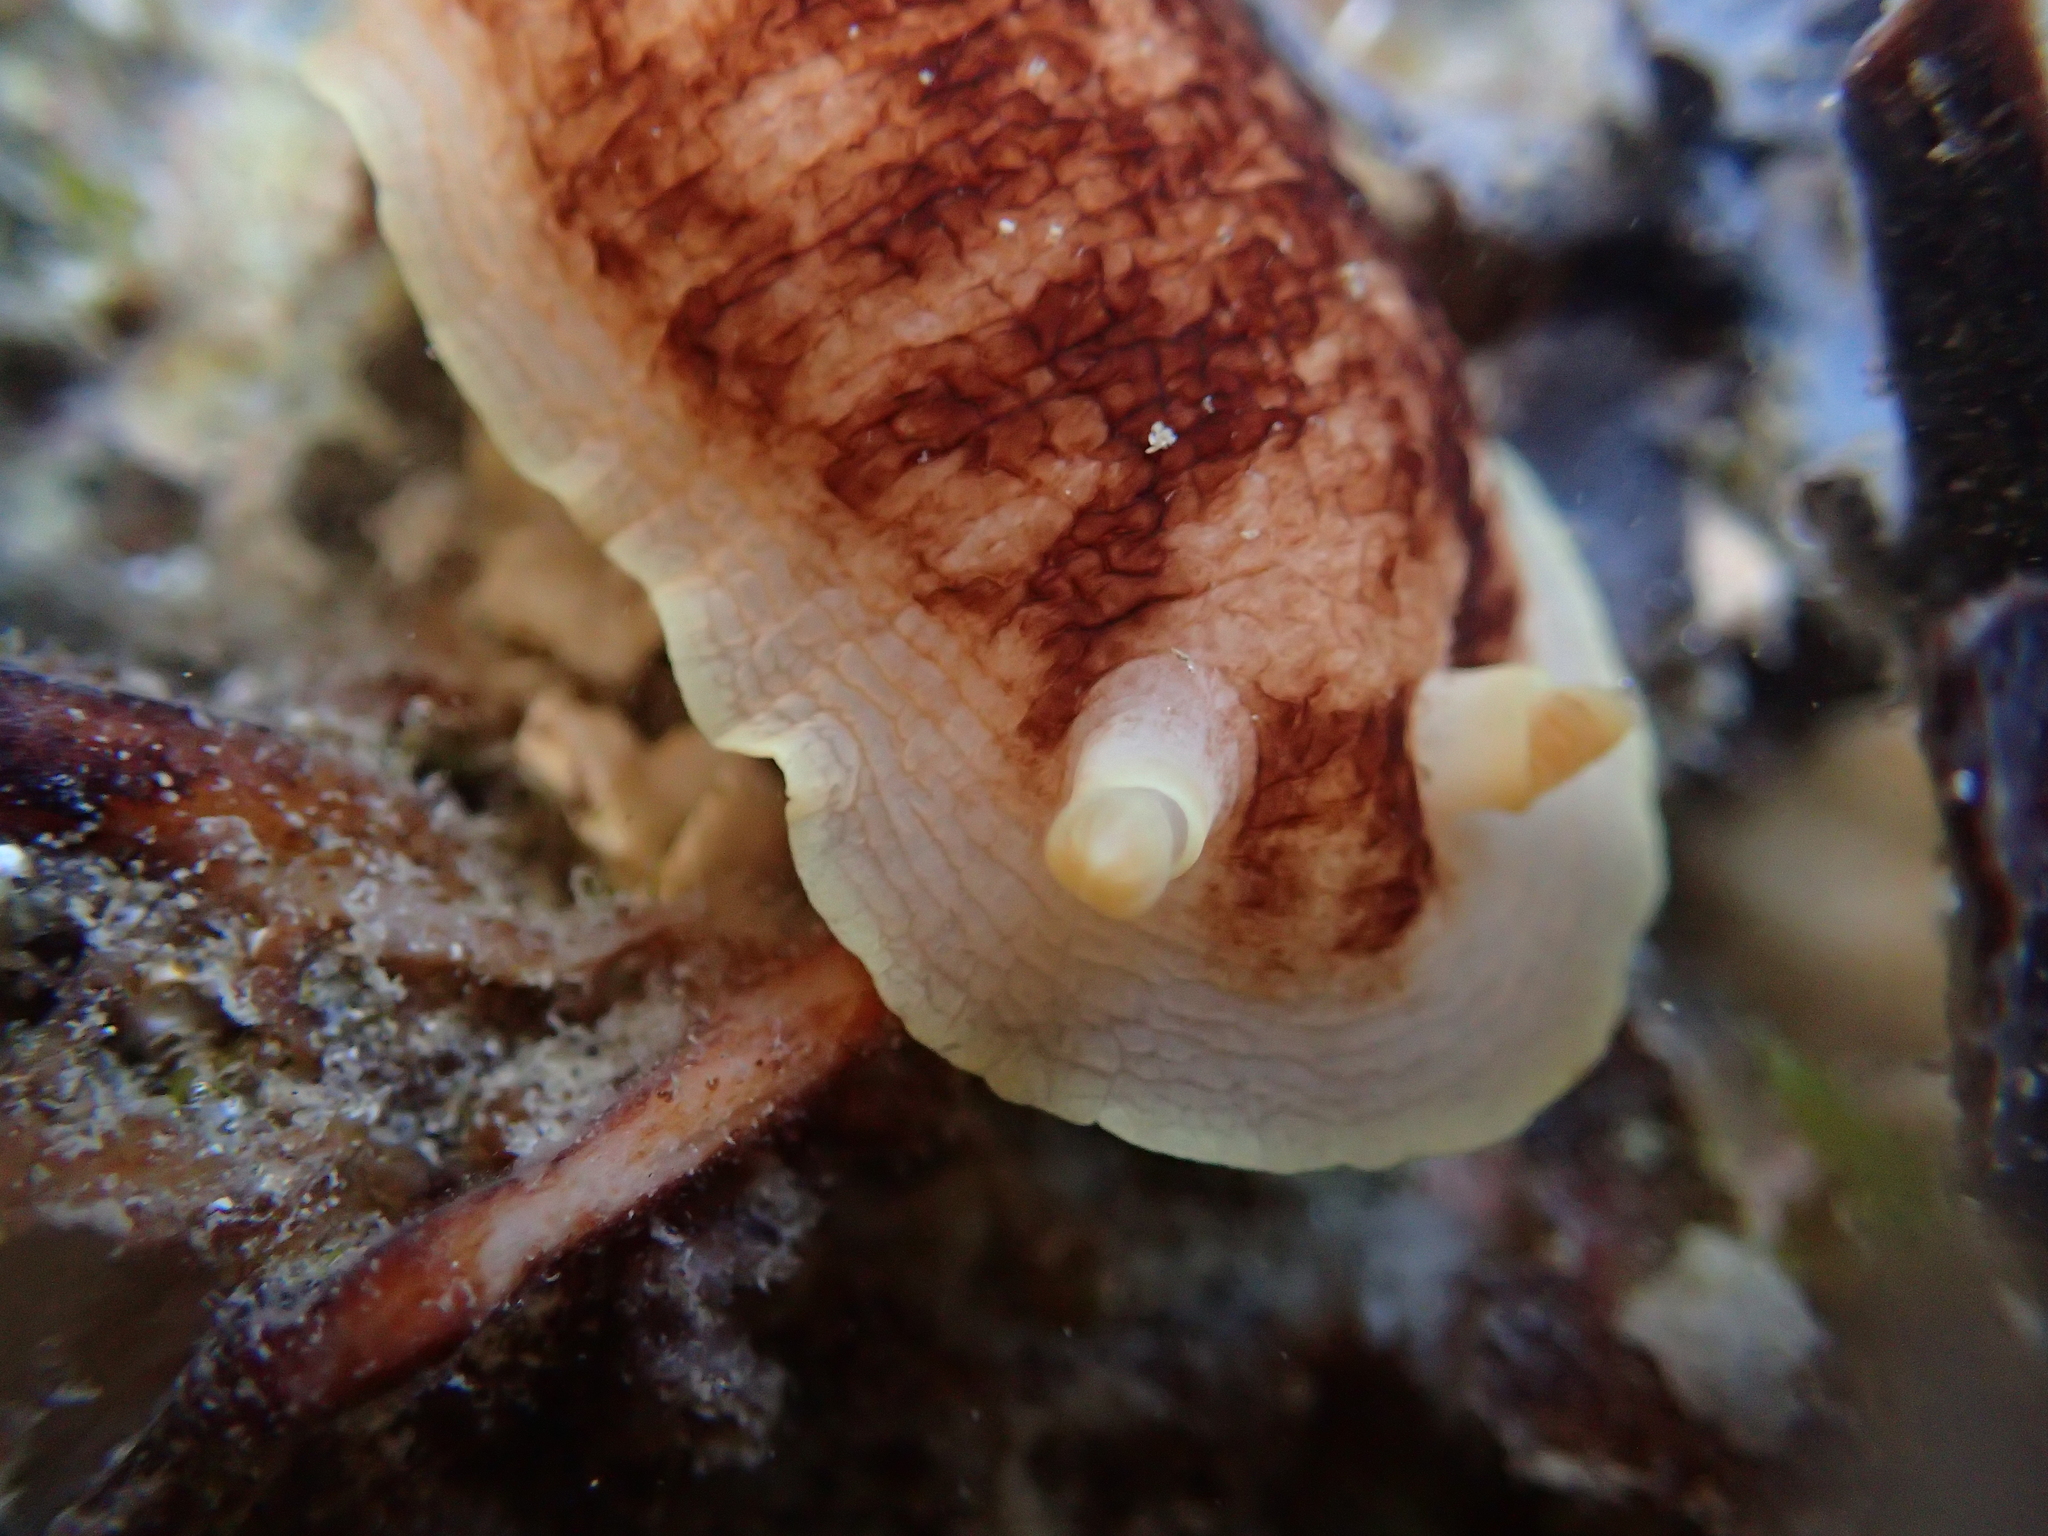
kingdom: Animalia
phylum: Mollusca
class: Gastropoda
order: Nudibranchia
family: Dorididae
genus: Aphelodoris
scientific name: Aphelodoris luctuosa
